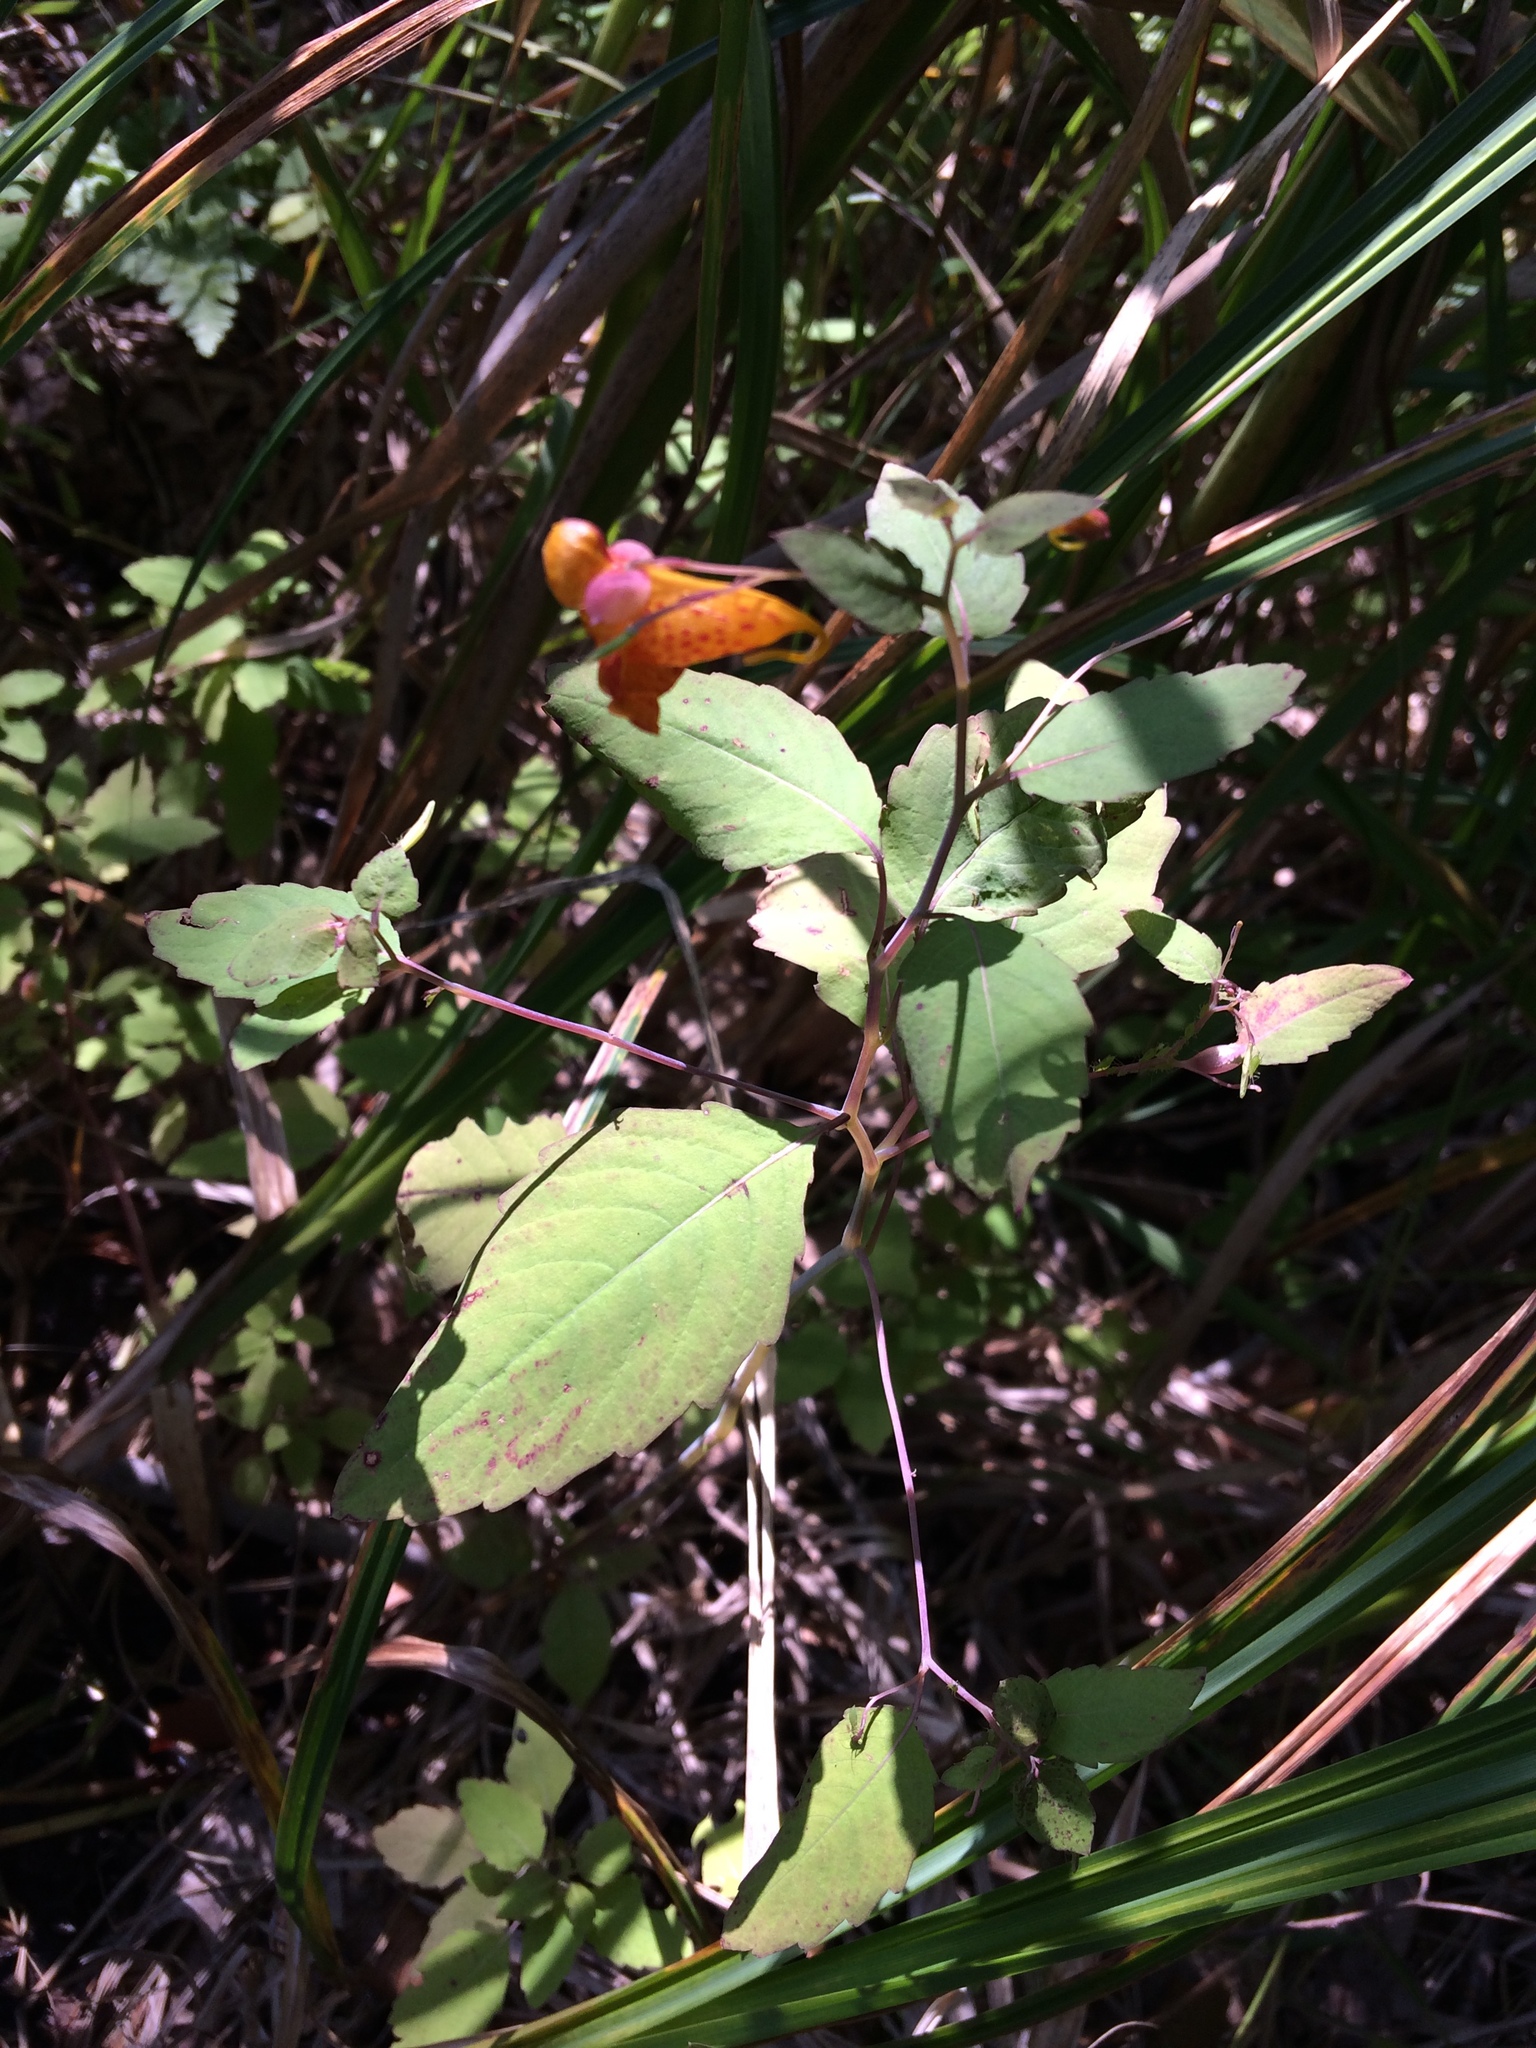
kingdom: Plantae
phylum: Tracheophyta
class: Magnoliopsida
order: Ericales
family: Balsaminaceae
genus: Impatiens
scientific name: Impatiens capensis
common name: Orange balsam
